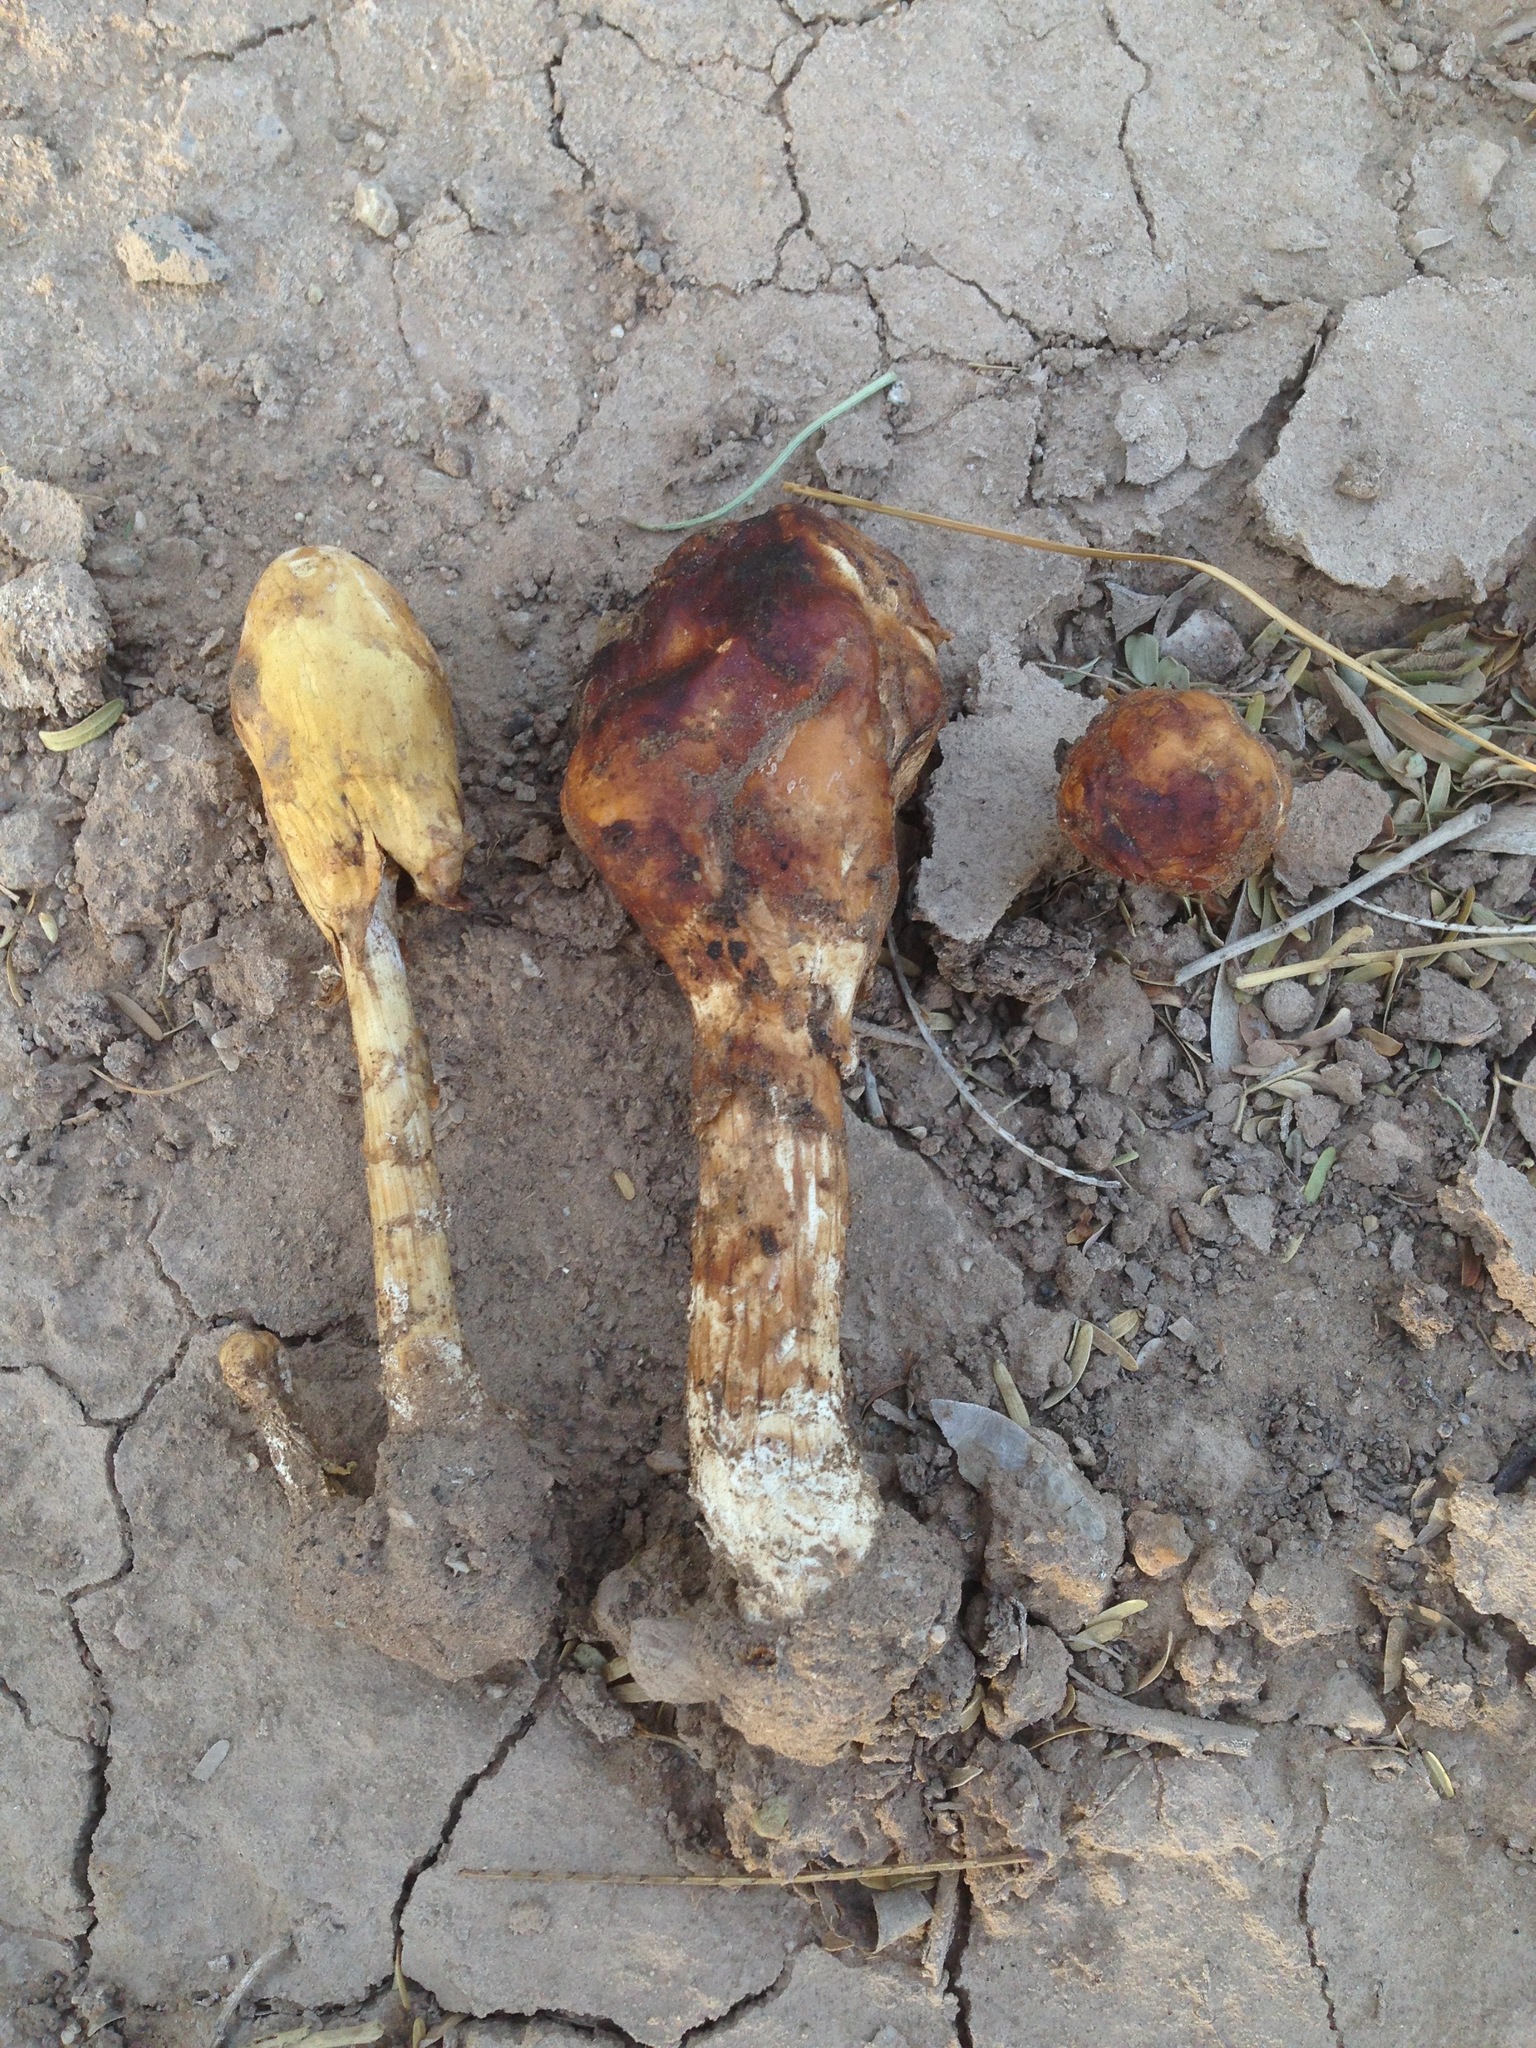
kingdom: Fungi
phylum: Basidiomycota
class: Agaricomycetes
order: Agaricales
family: Agaricaceae
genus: Podaxis
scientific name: Podaxis pistillaris
